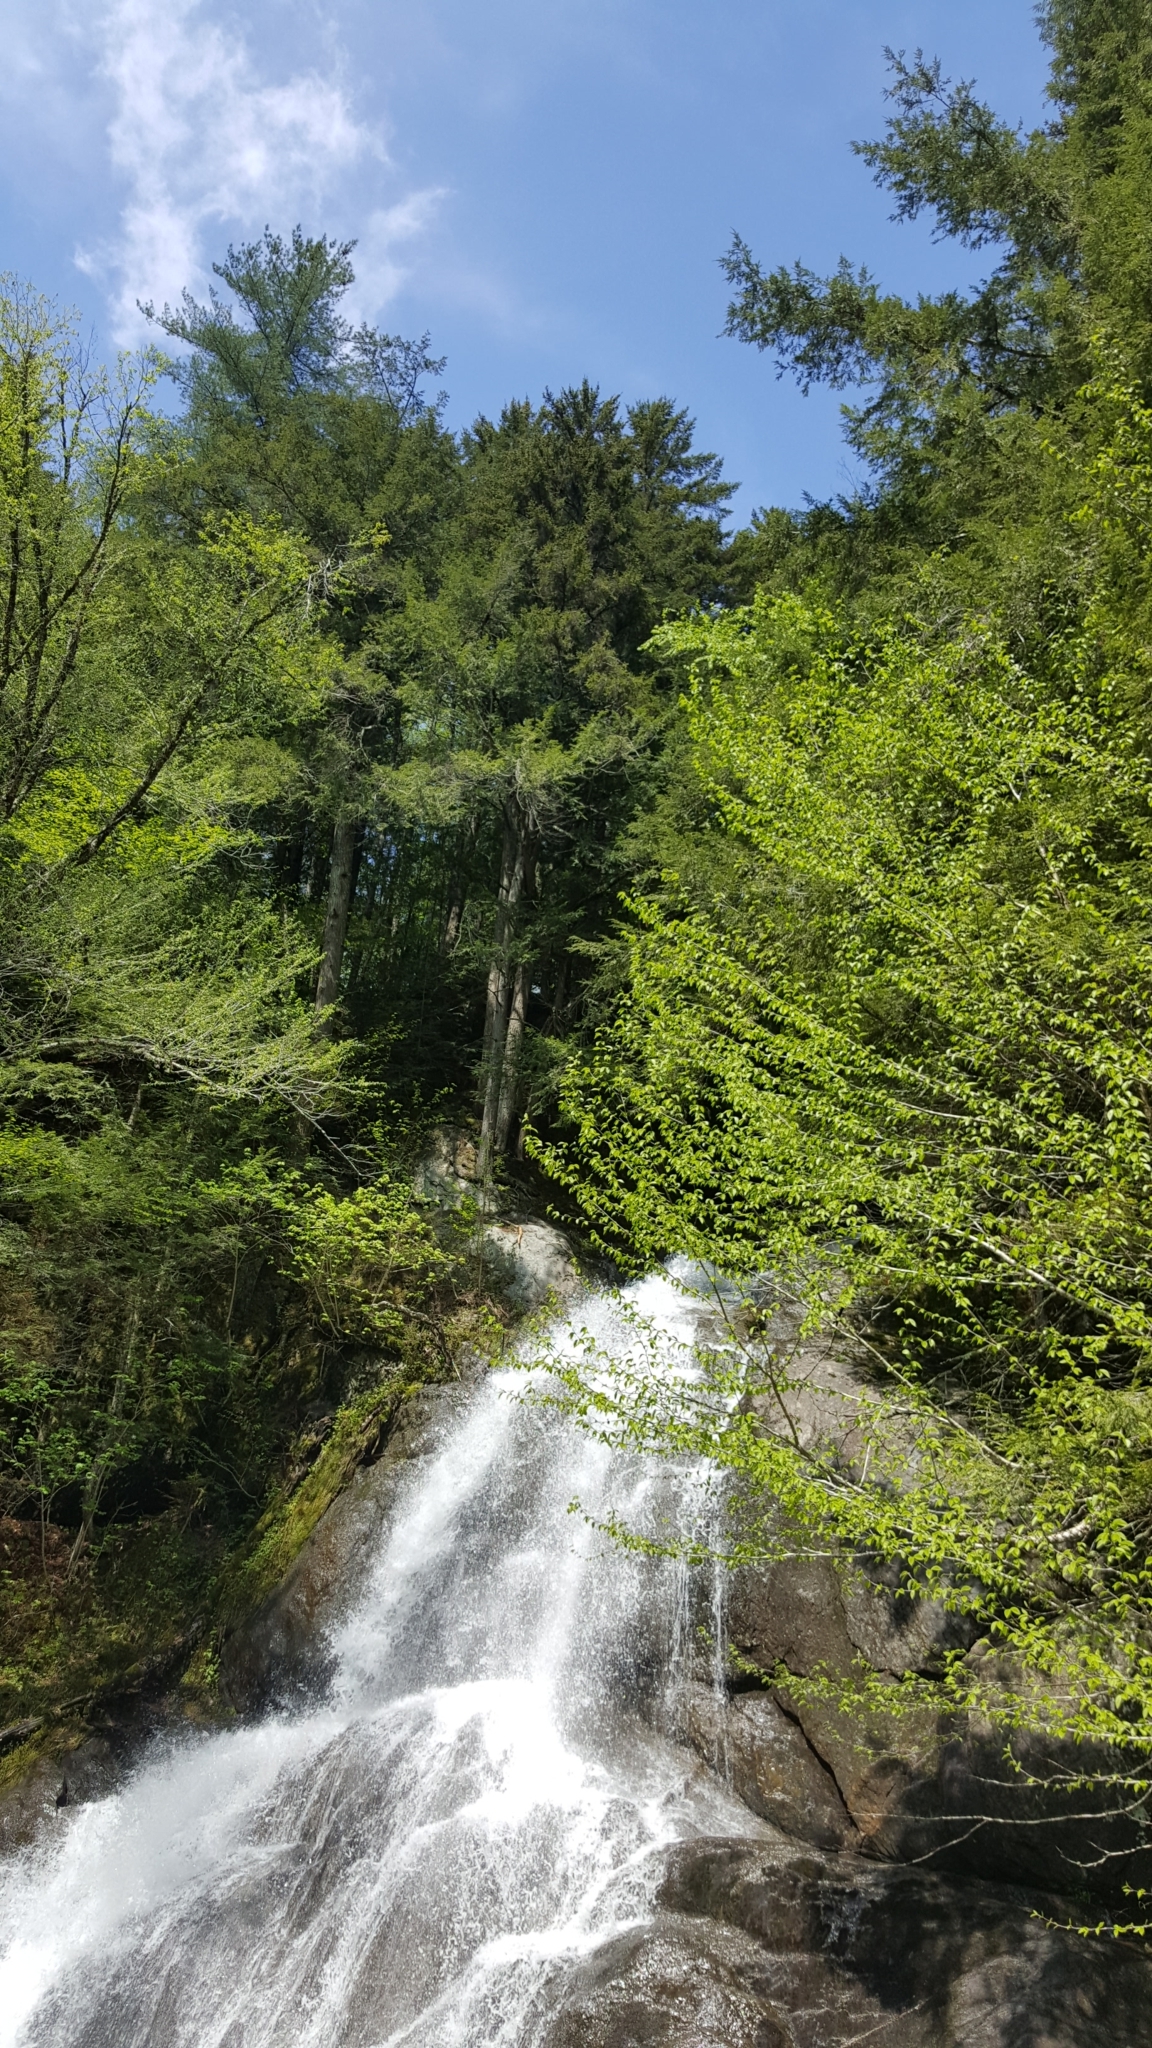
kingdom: Plantae
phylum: Tracheophyta
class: Pinopsida
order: Pinales
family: Pinaceae
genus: Pinus
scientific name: Pinus strobus
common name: Weymouth pine
